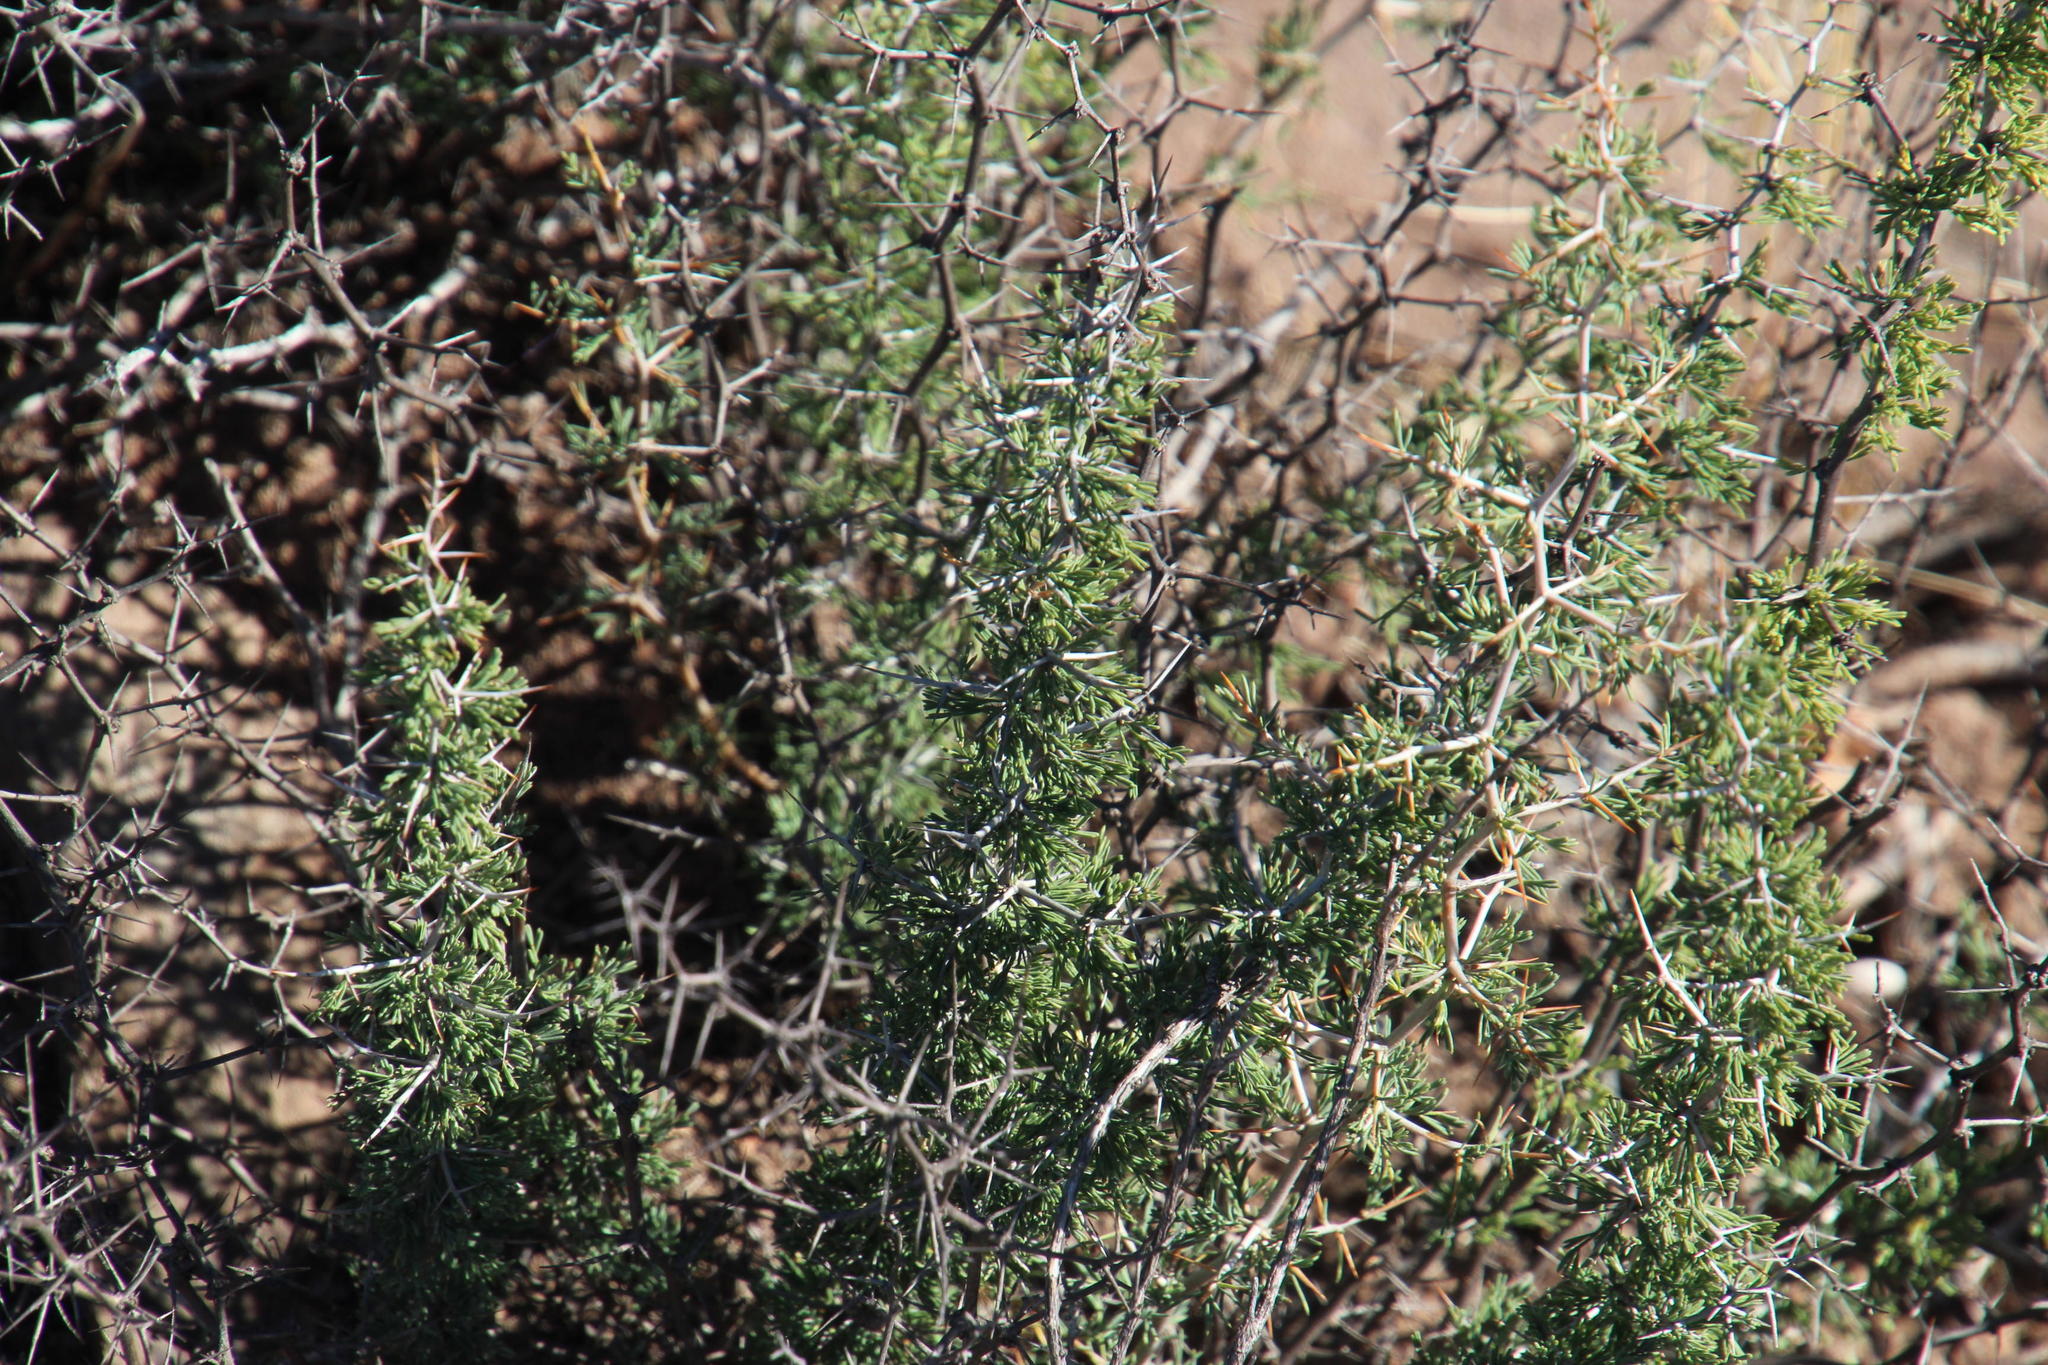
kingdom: Plantae
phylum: Tracheophyta
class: Liliopsida
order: Asparagales
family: Asparagaceae
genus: Asparagus
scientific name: Asparagus suaveolens
